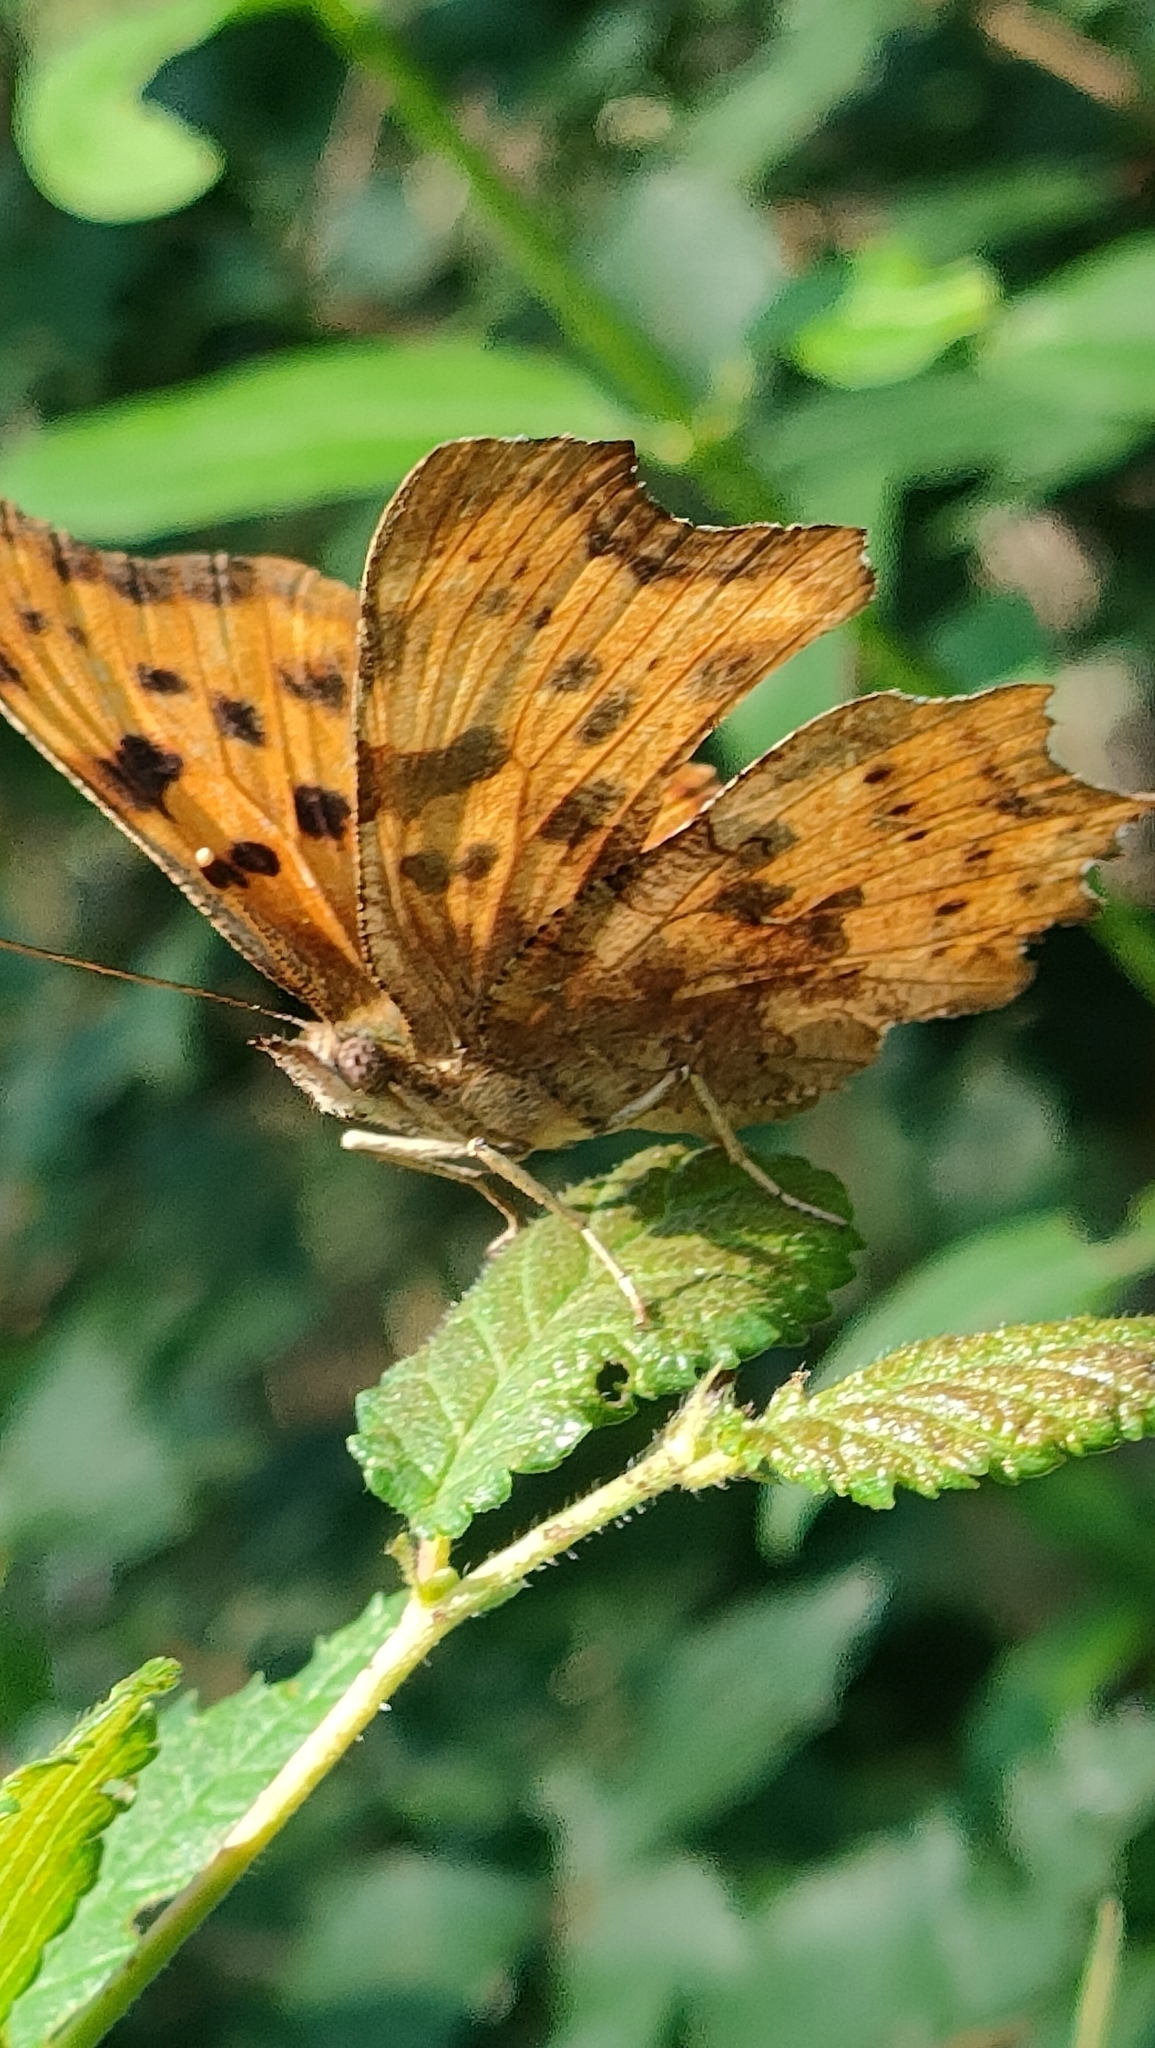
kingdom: Animalia
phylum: Arthropoda
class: Insecta
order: Lepidoptera
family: Nymphalidae
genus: Polygonia
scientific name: Polygonia c-album
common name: Comma
